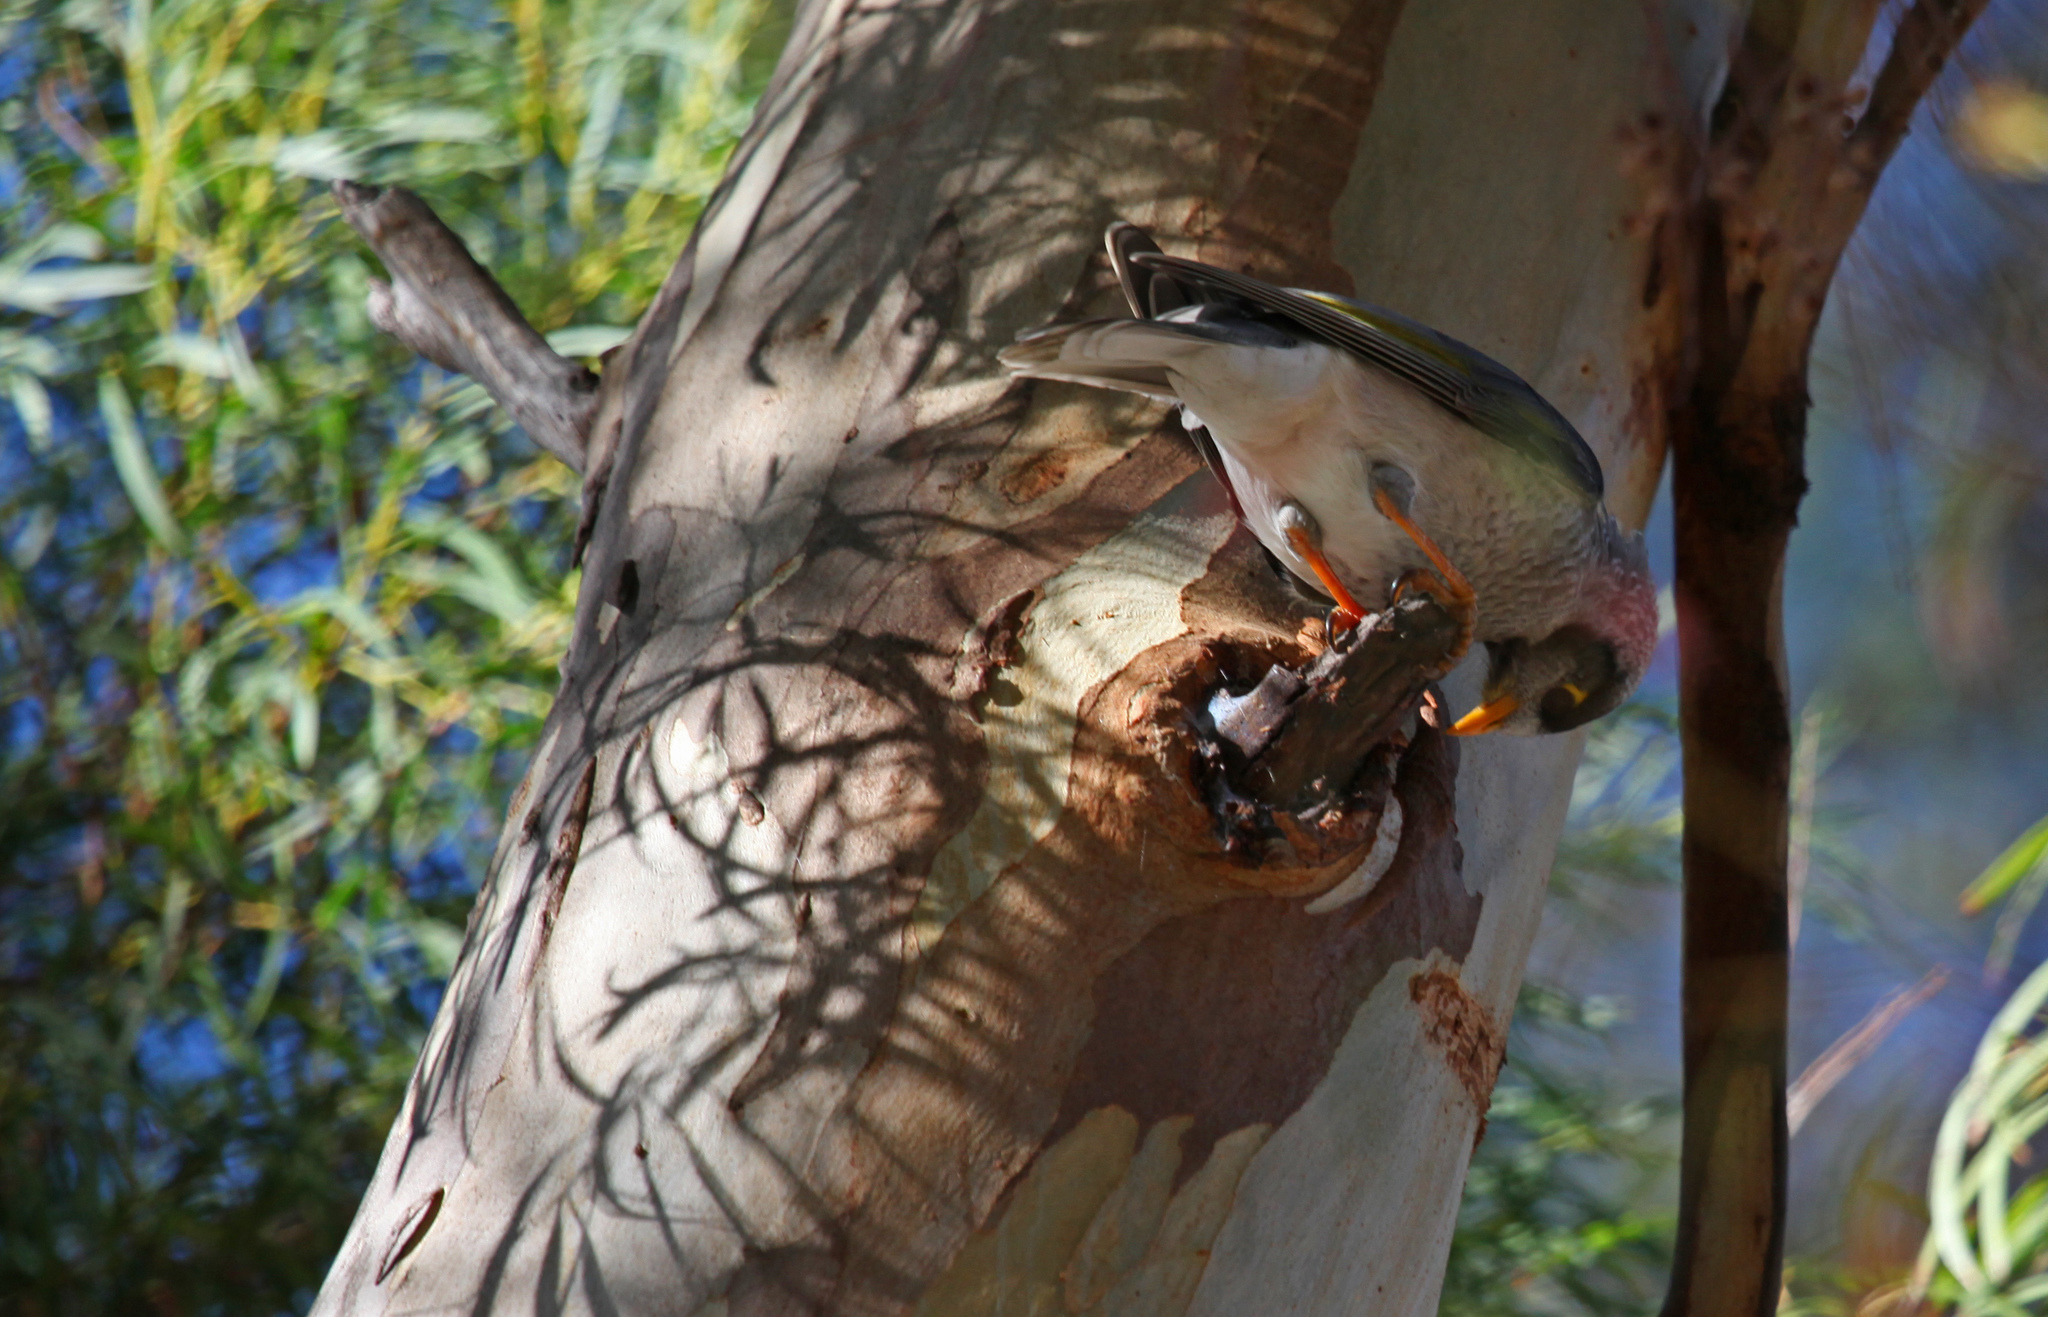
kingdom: Animalia
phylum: Chordata
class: Aves
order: Passeriformes
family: Meliphagidae
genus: Manorina
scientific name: Manorina melanocephala
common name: Noisy miner
